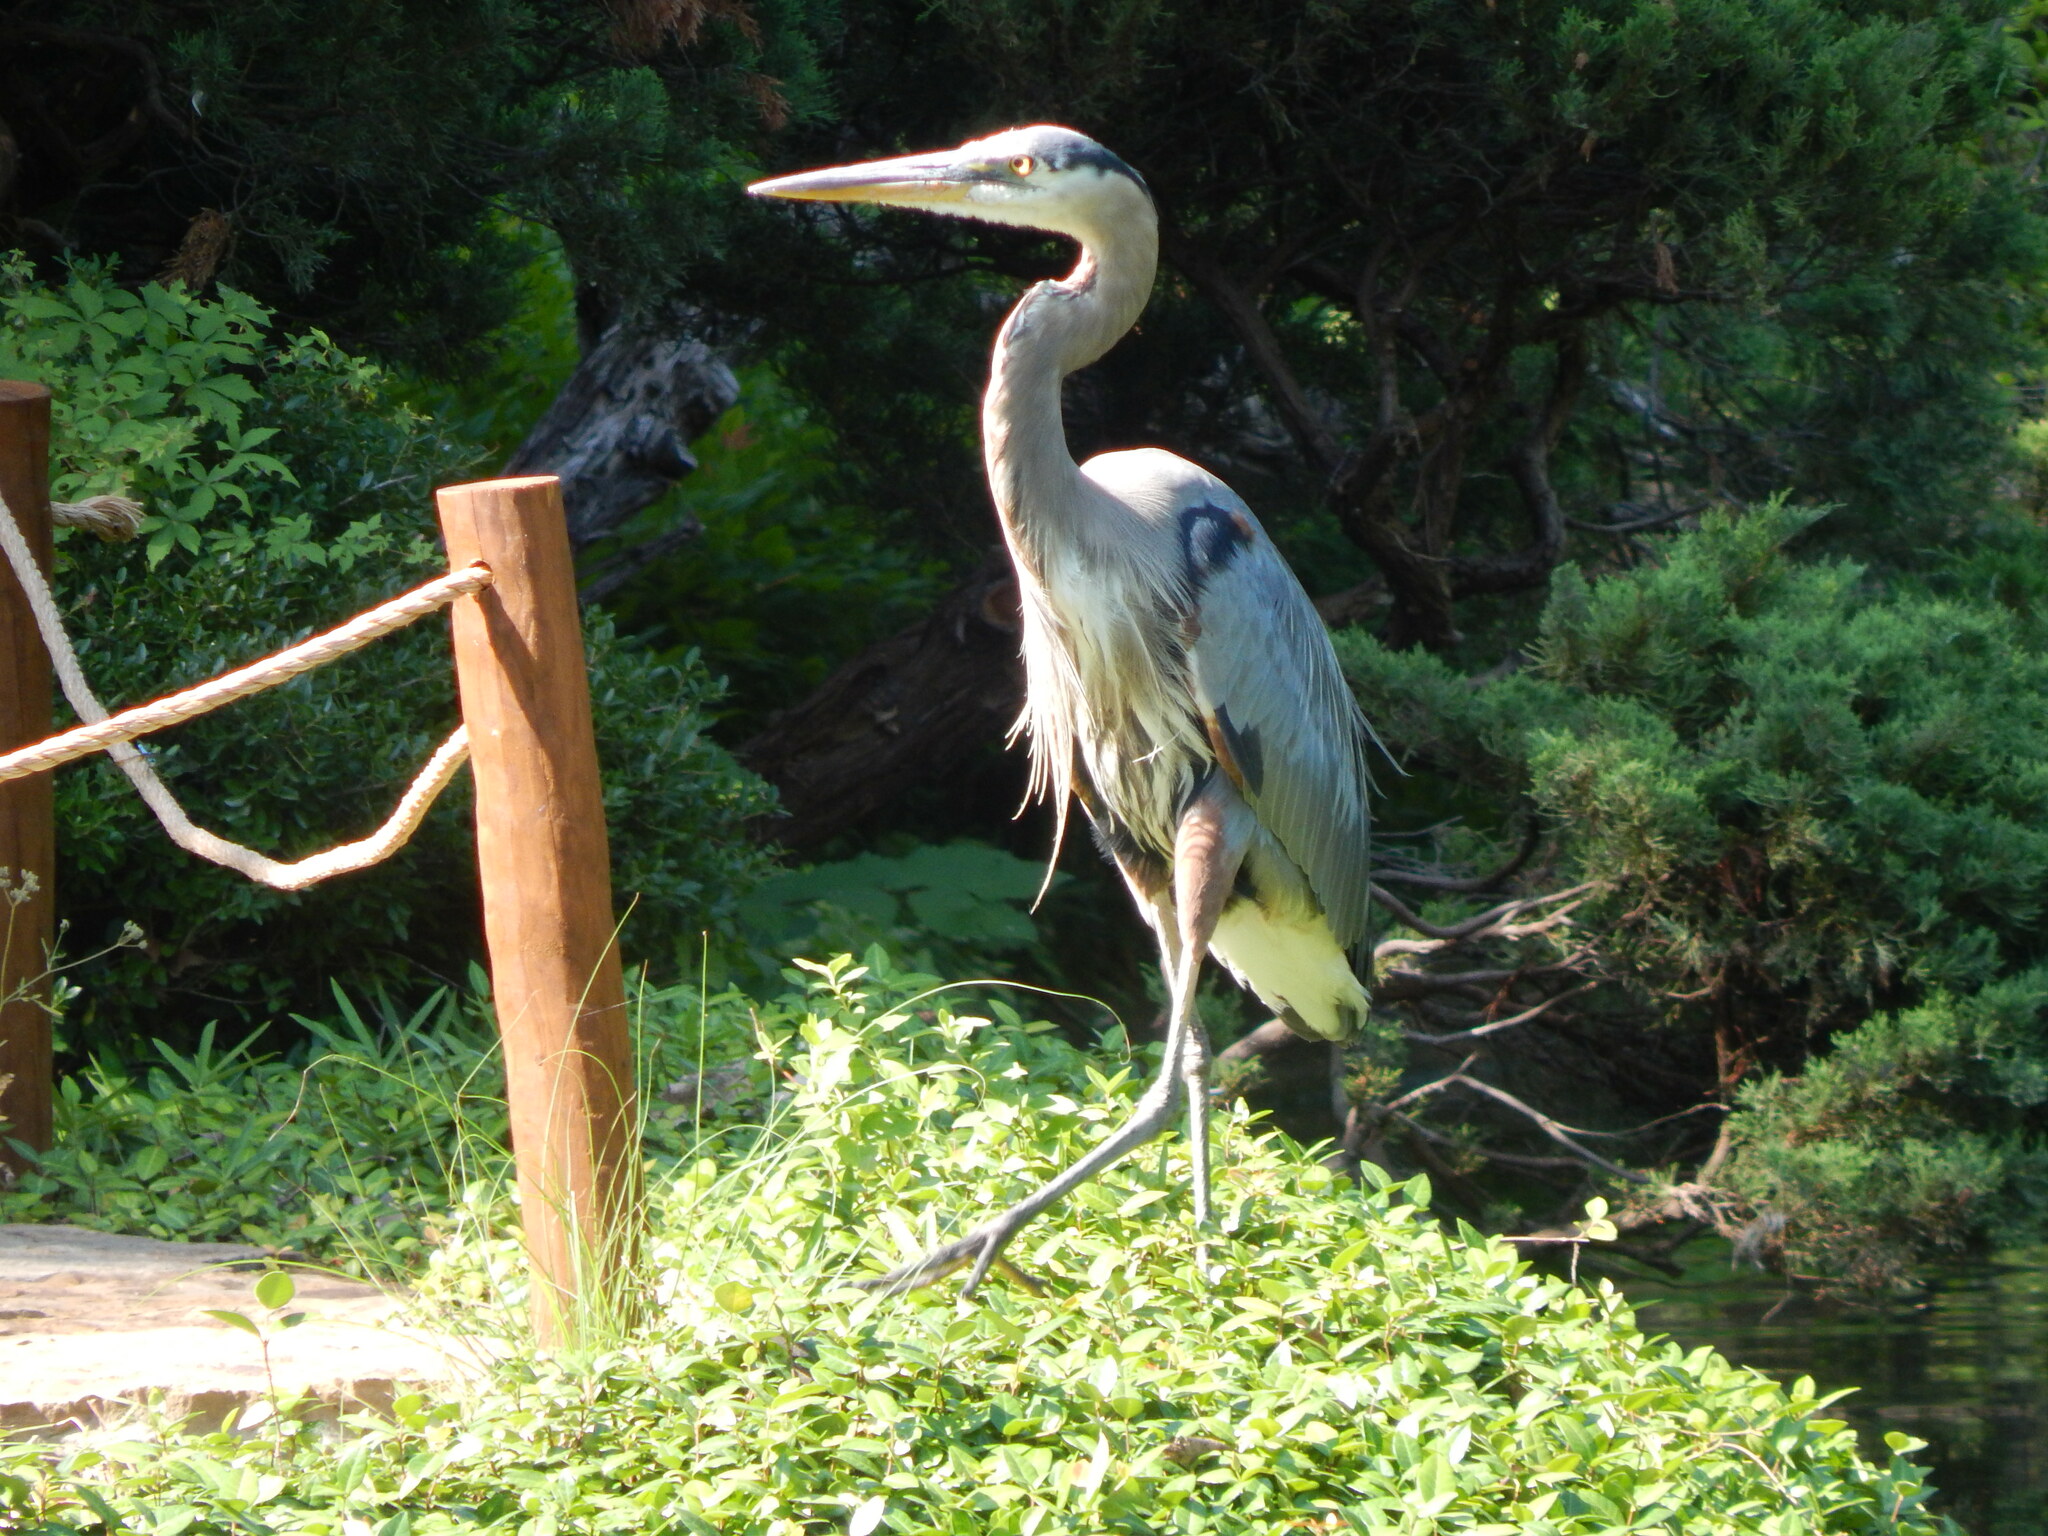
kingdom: Animalia
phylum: Chordata
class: Aves
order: Pelecaniformes
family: Ardeidae
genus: Ardea
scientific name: Ardea herodias
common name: Great blue heron
